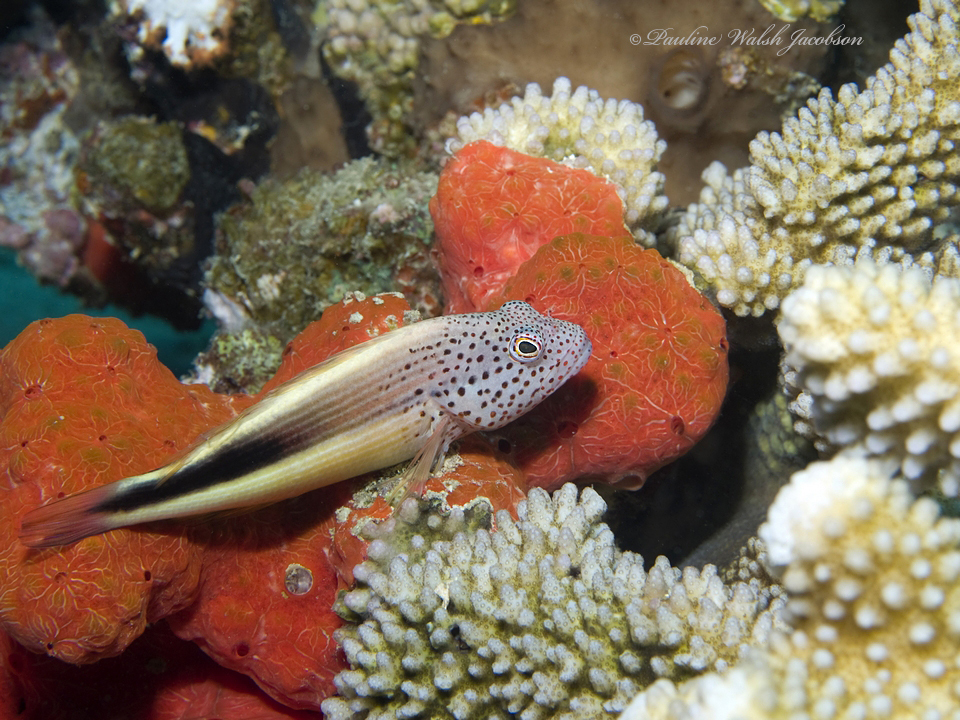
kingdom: Animalia
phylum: Chordata
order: Perciformes
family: Cirrhitidae
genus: Paracirrhites
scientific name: Paracirrhites forsteri
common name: Freckled hawkfish
